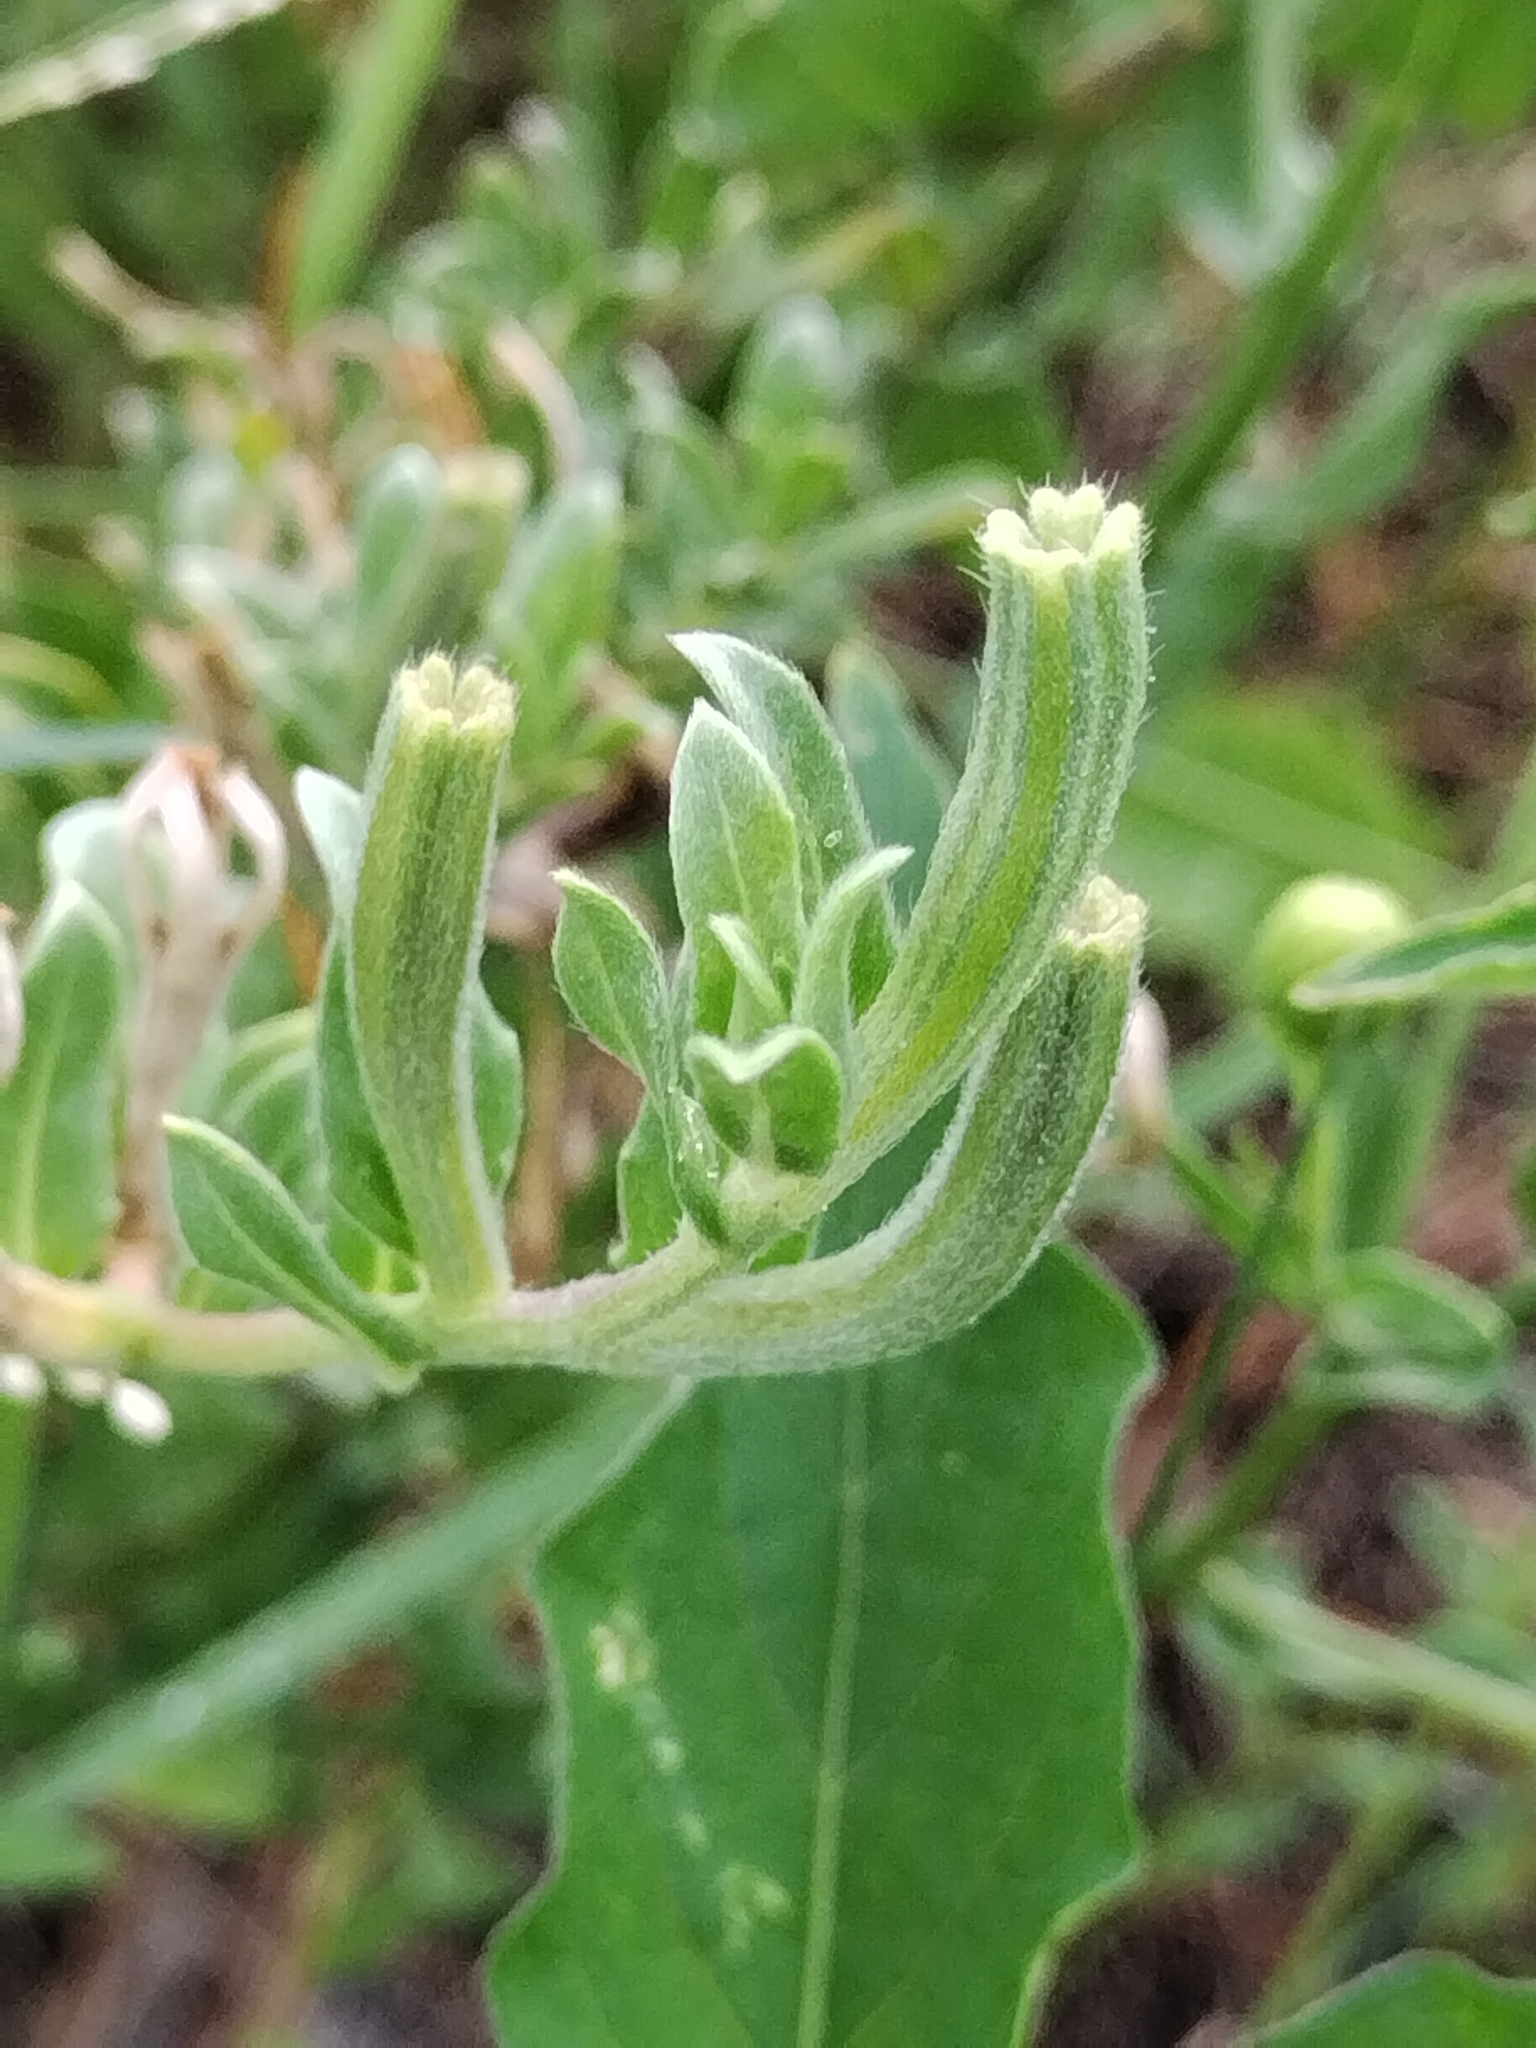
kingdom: Plantae
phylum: Tracheophyta
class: Magnoliopsida
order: Myrtales
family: Onagraceae
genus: Oenothera
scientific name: Oenothera humifusa
